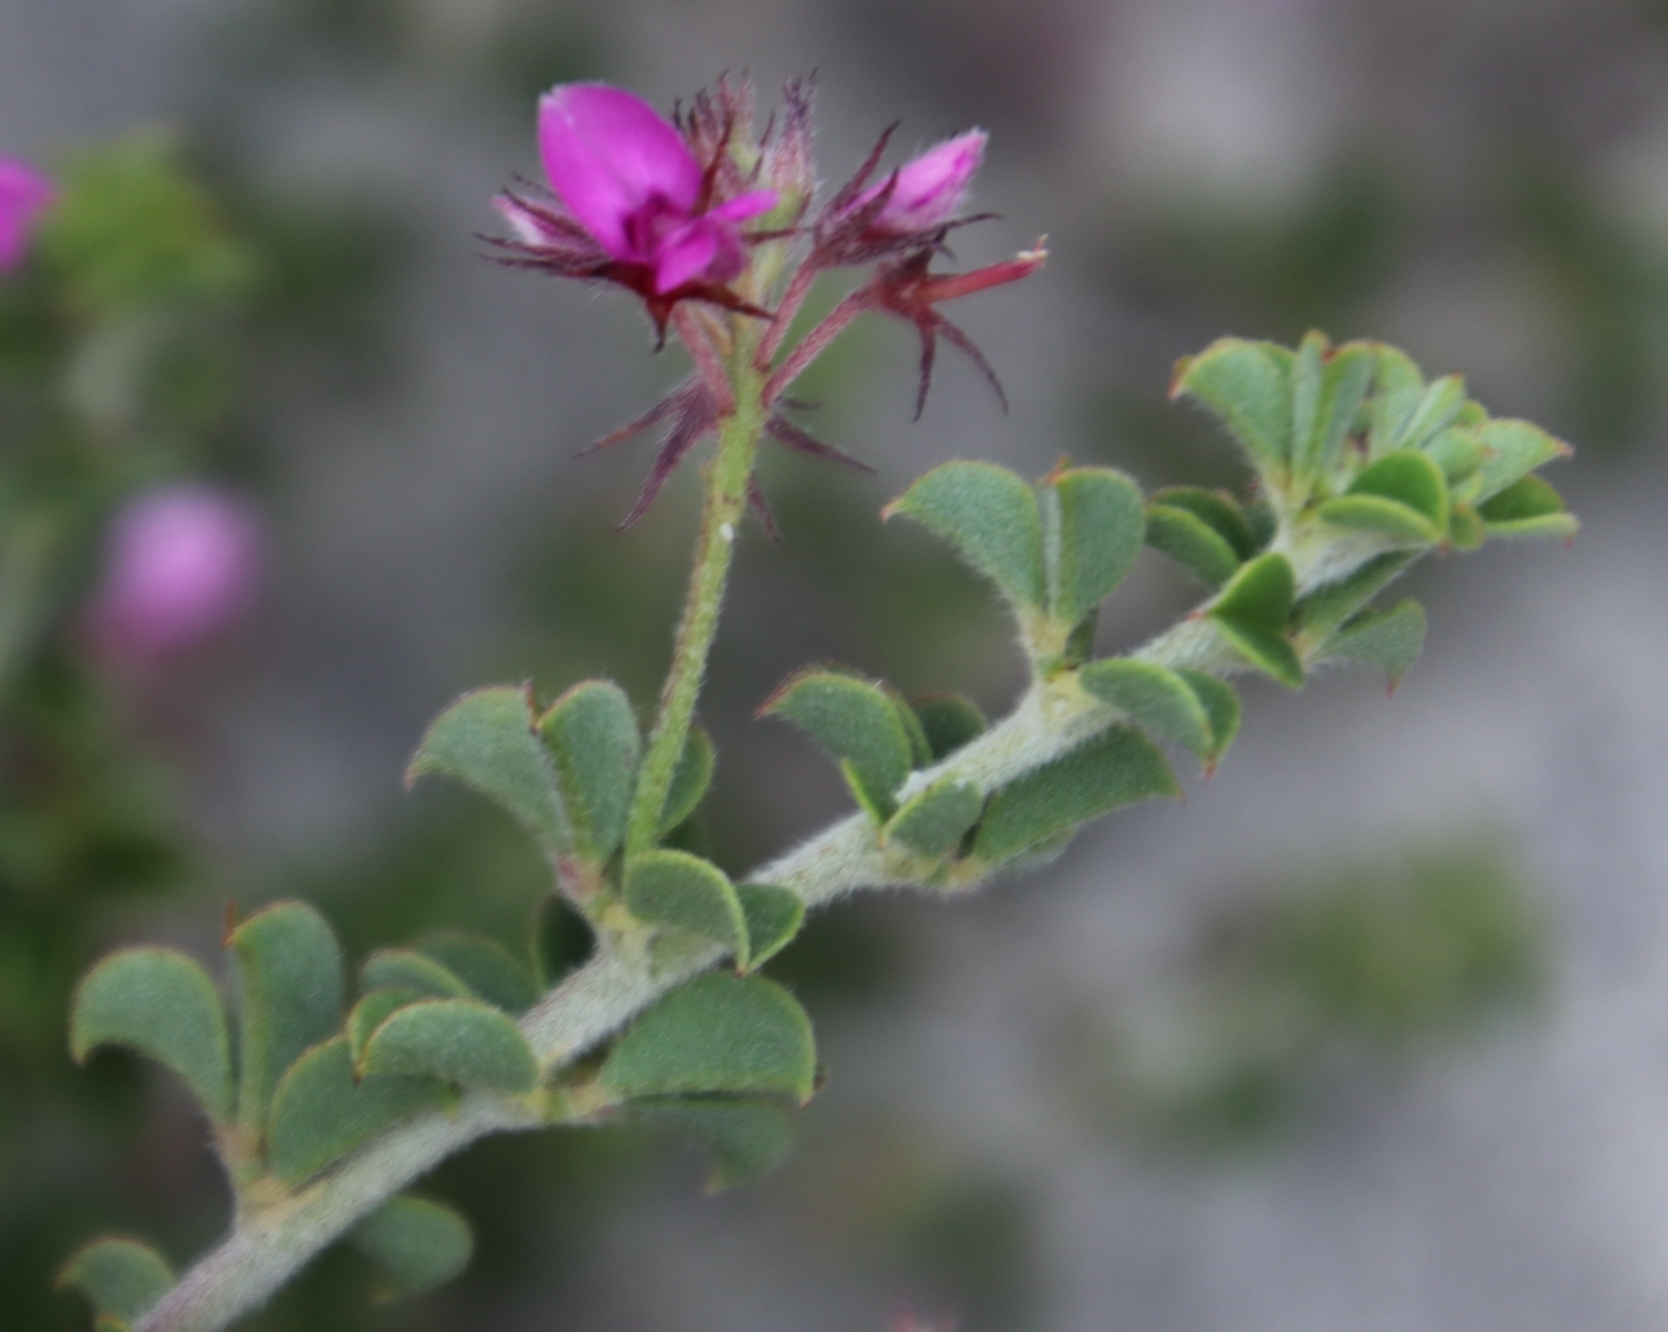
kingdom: Plantae
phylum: Tracheophyta
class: Magnoliopsida
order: Fabales
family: Fabaceae
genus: Indigofera
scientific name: Indigofera candolleana
